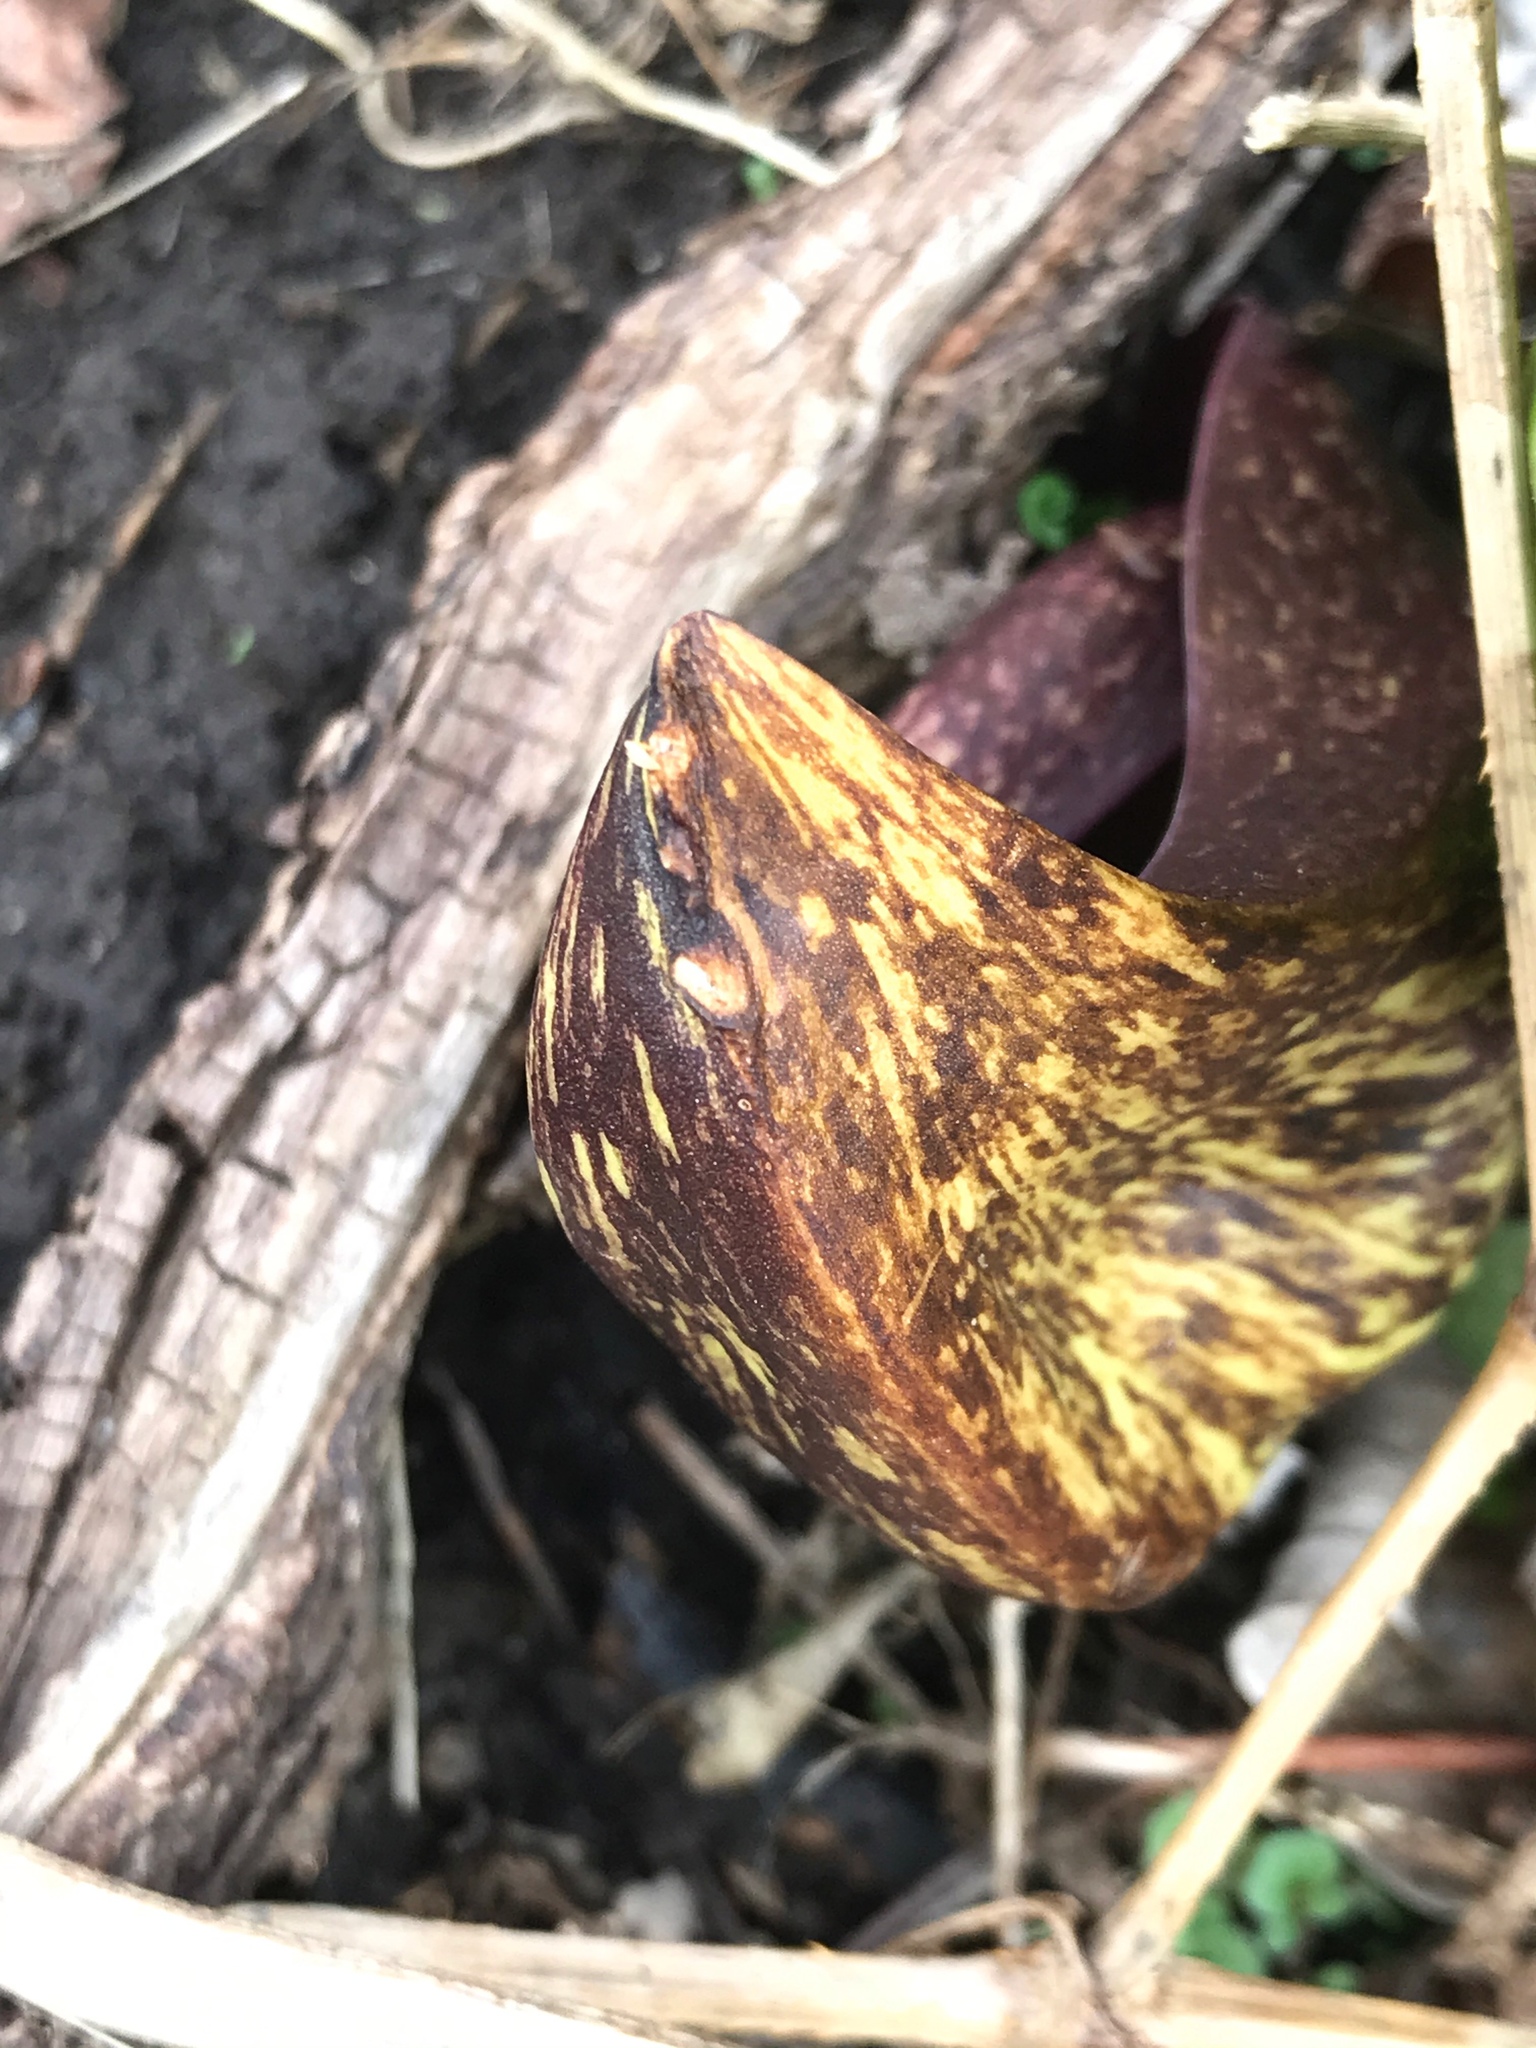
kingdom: Plantae
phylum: Tracheophyta
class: Liliopsida
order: Alismatales
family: Araceae
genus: Symplocarpus
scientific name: Symplocarpus foetidus
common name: Eastern skunk cabbage
